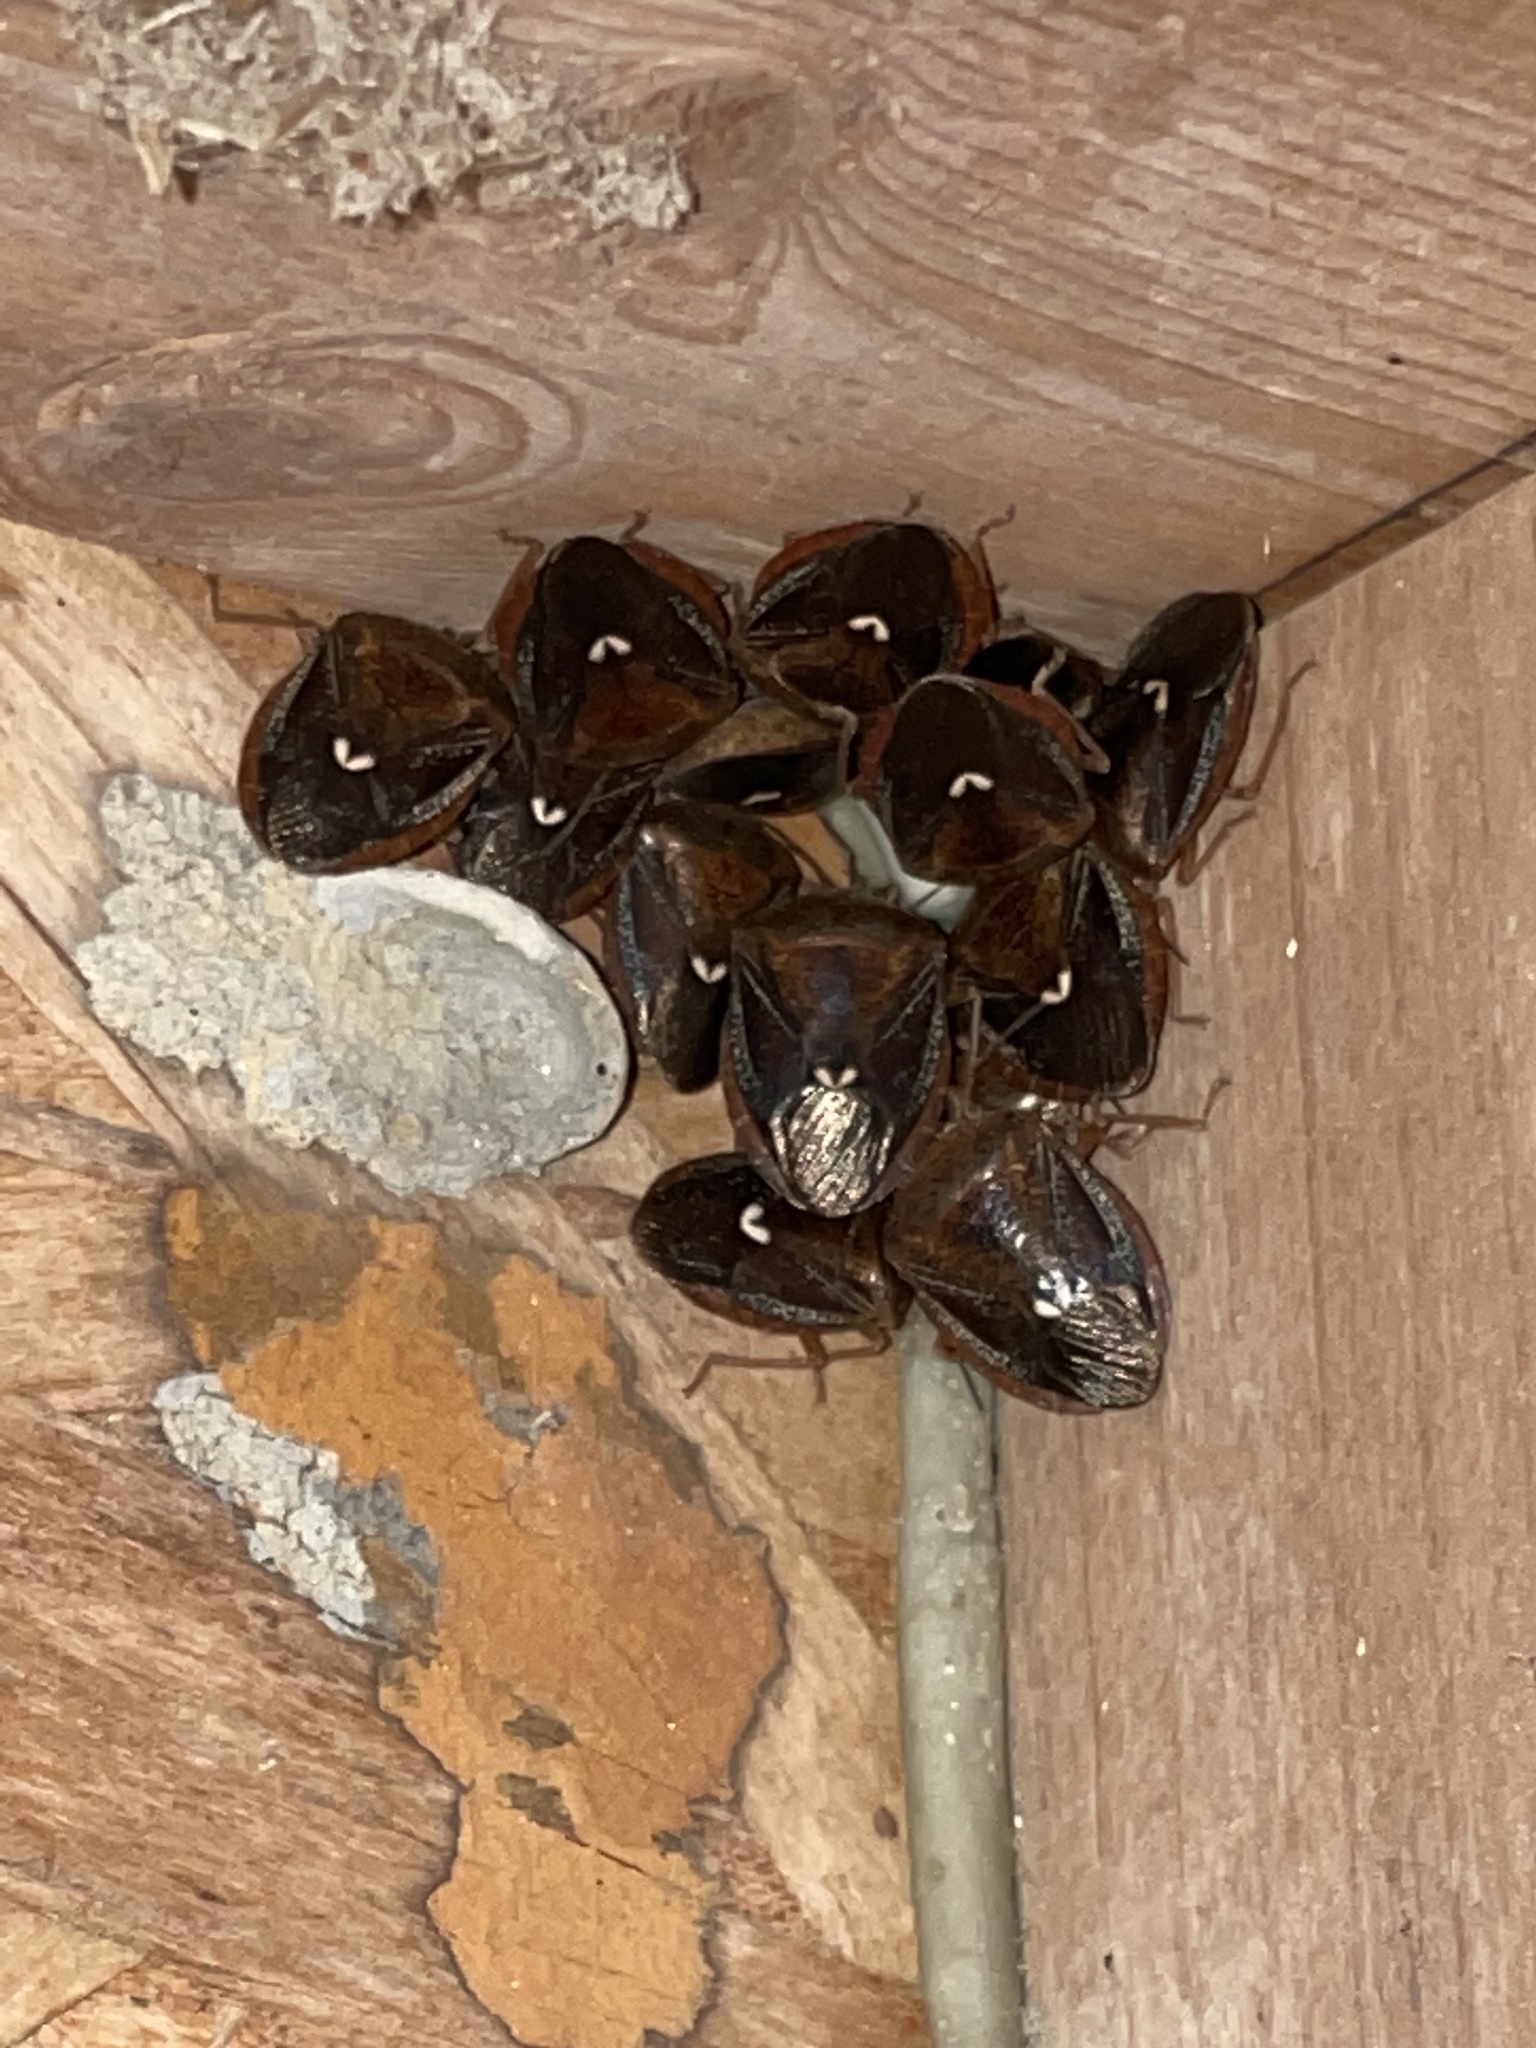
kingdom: Animalia
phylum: Arthropoda
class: Insecta
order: Hemiptera
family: Pentatomidae
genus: Edessa
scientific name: Edessa bifida
